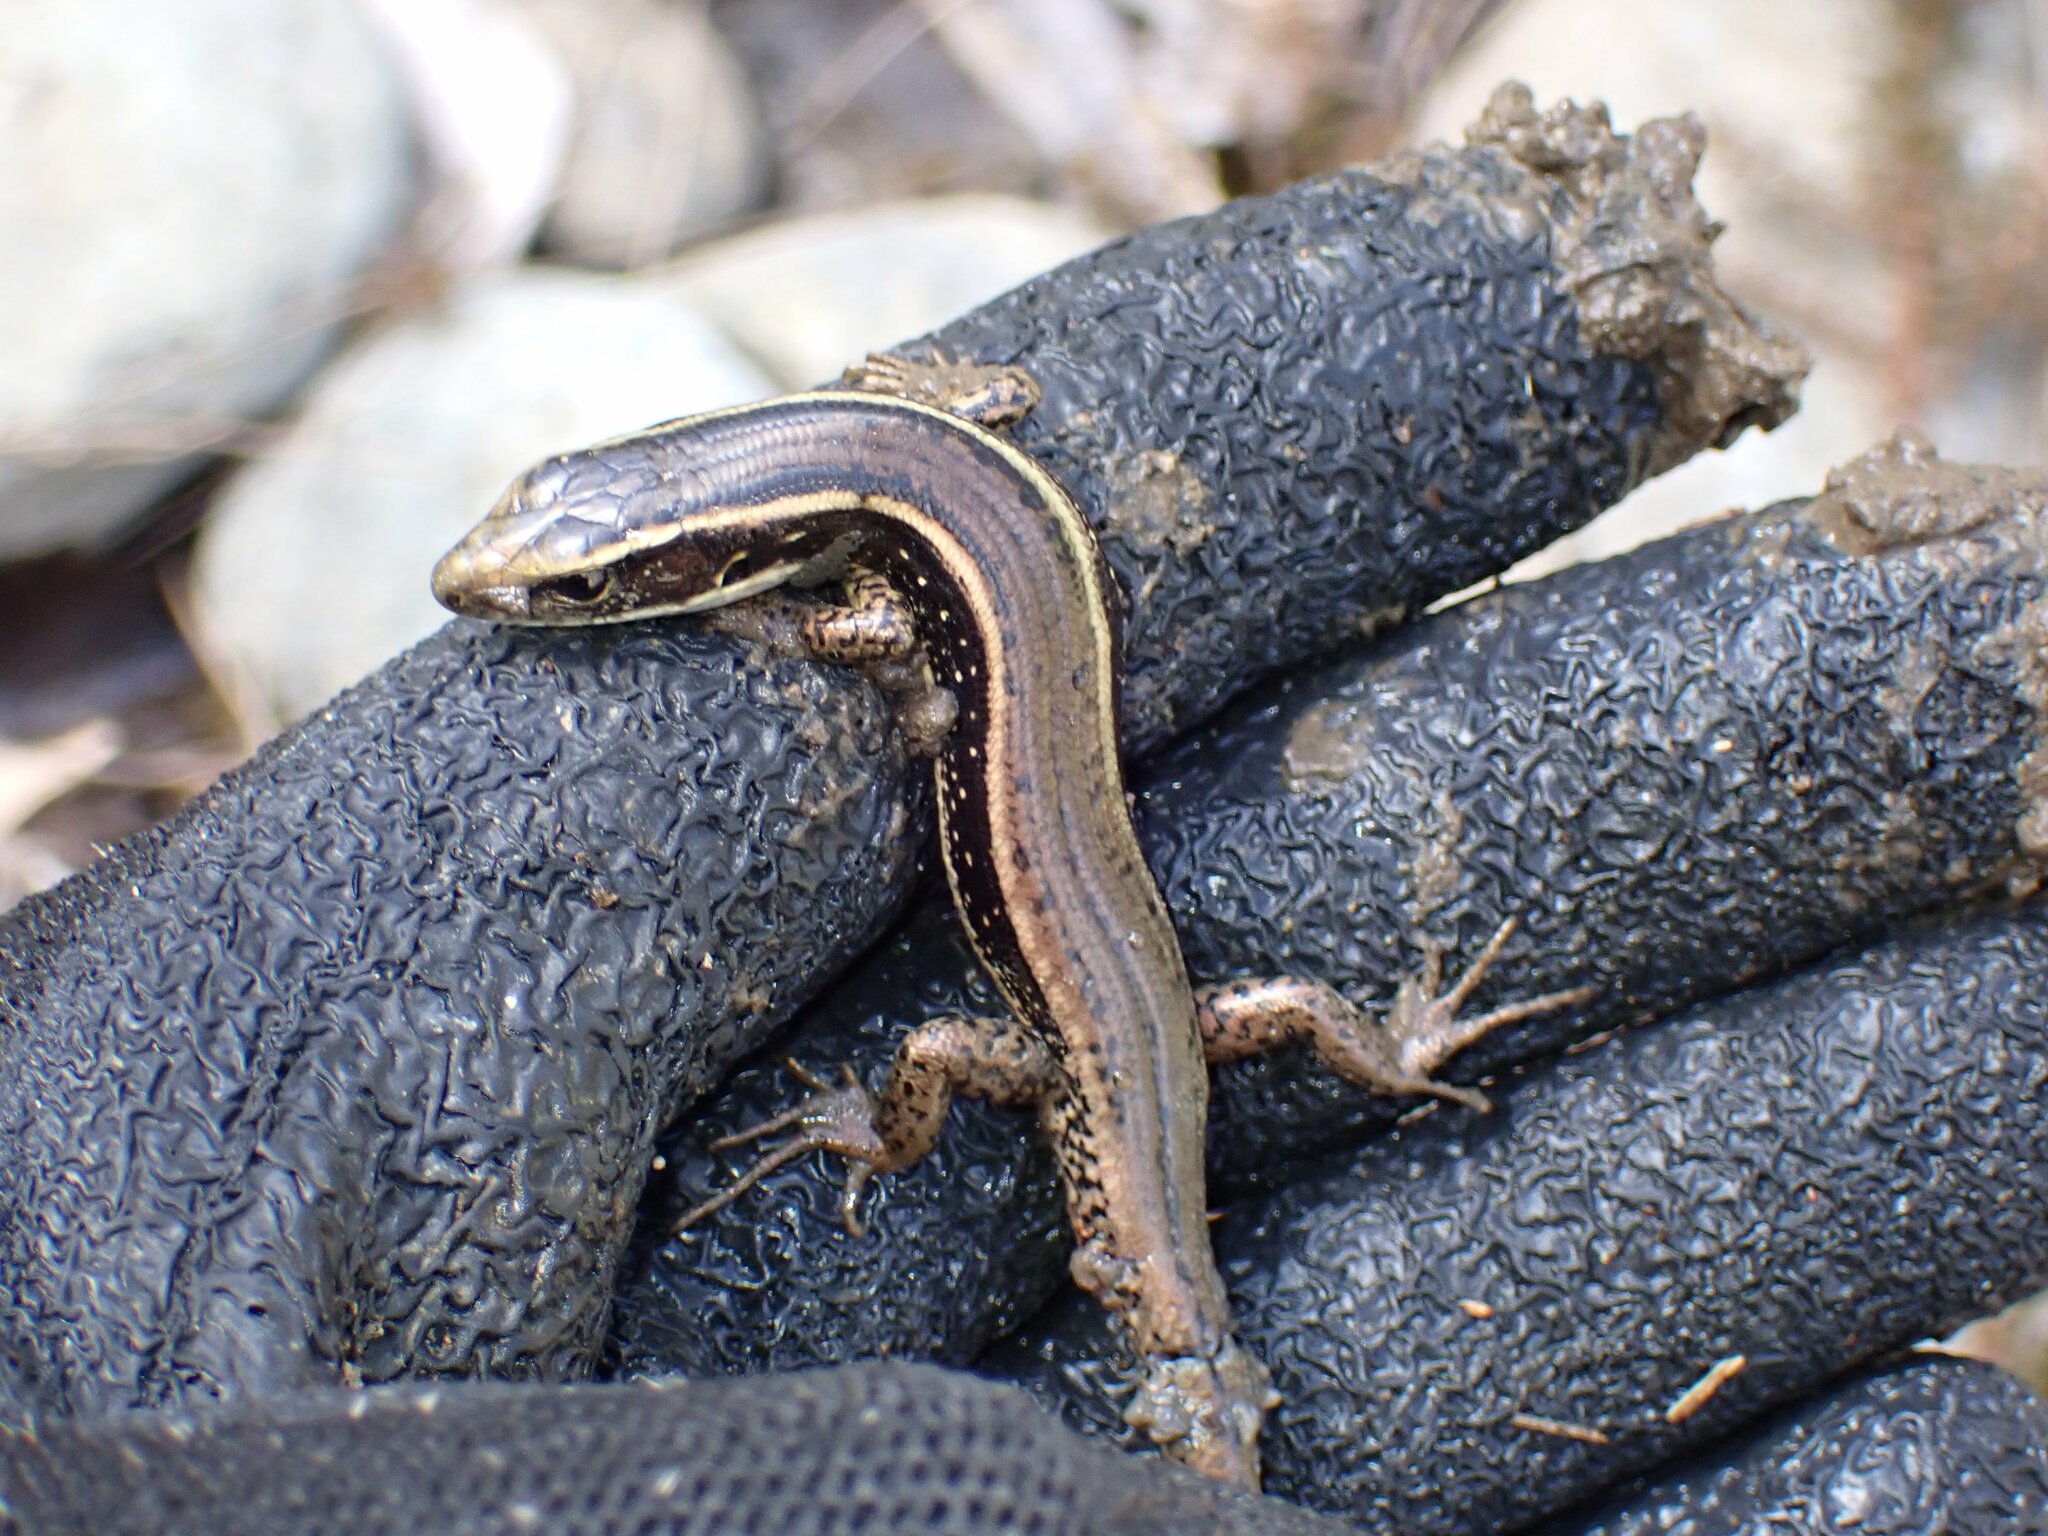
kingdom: Animalia
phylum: Chordata
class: Squamata
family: Scincidae
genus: Eulamprus
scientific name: Eulamprus quoyii
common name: Eastern water skink
